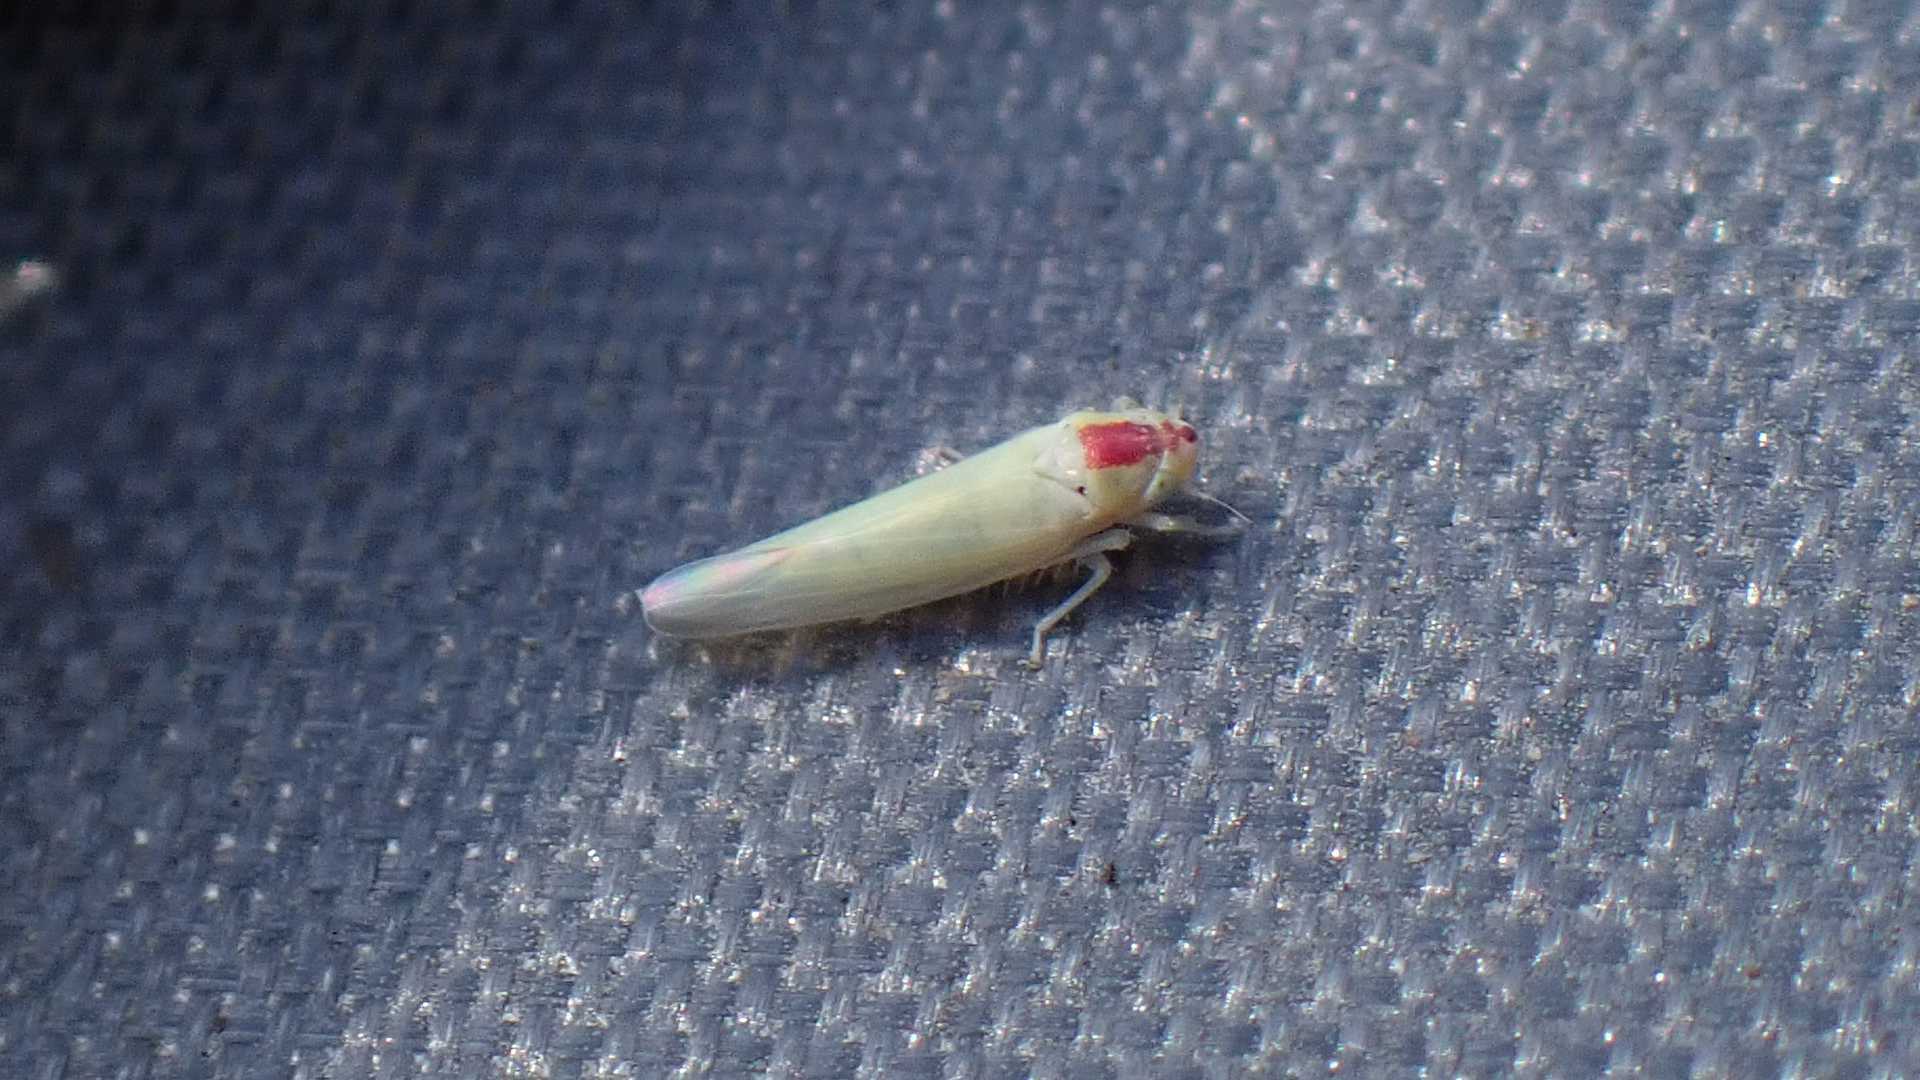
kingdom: Animalia
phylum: Arthropoda
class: Insecta
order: Hemiptera
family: Cicadellidae
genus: Zygina
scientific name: Zygina nivea
